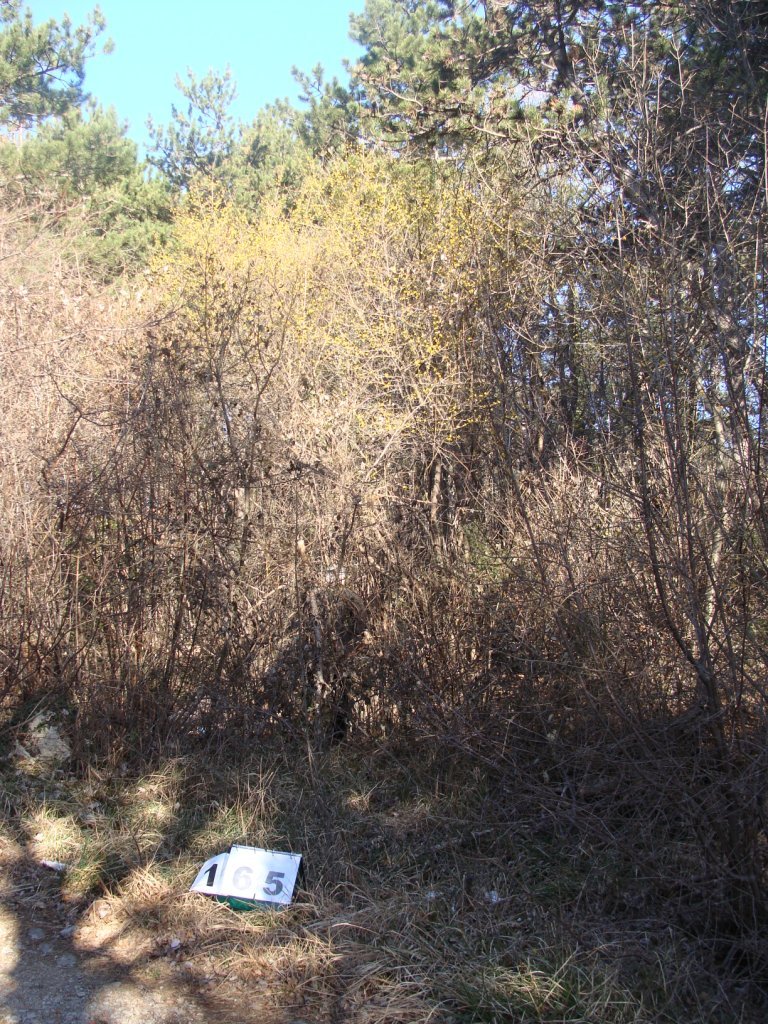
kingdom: Plantae
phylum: Tracheophyta
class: Magnoliopsida
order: Cornales
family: Cornaceae
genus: Cornus
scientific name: Cornus mas
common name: Cornelian-cherry
